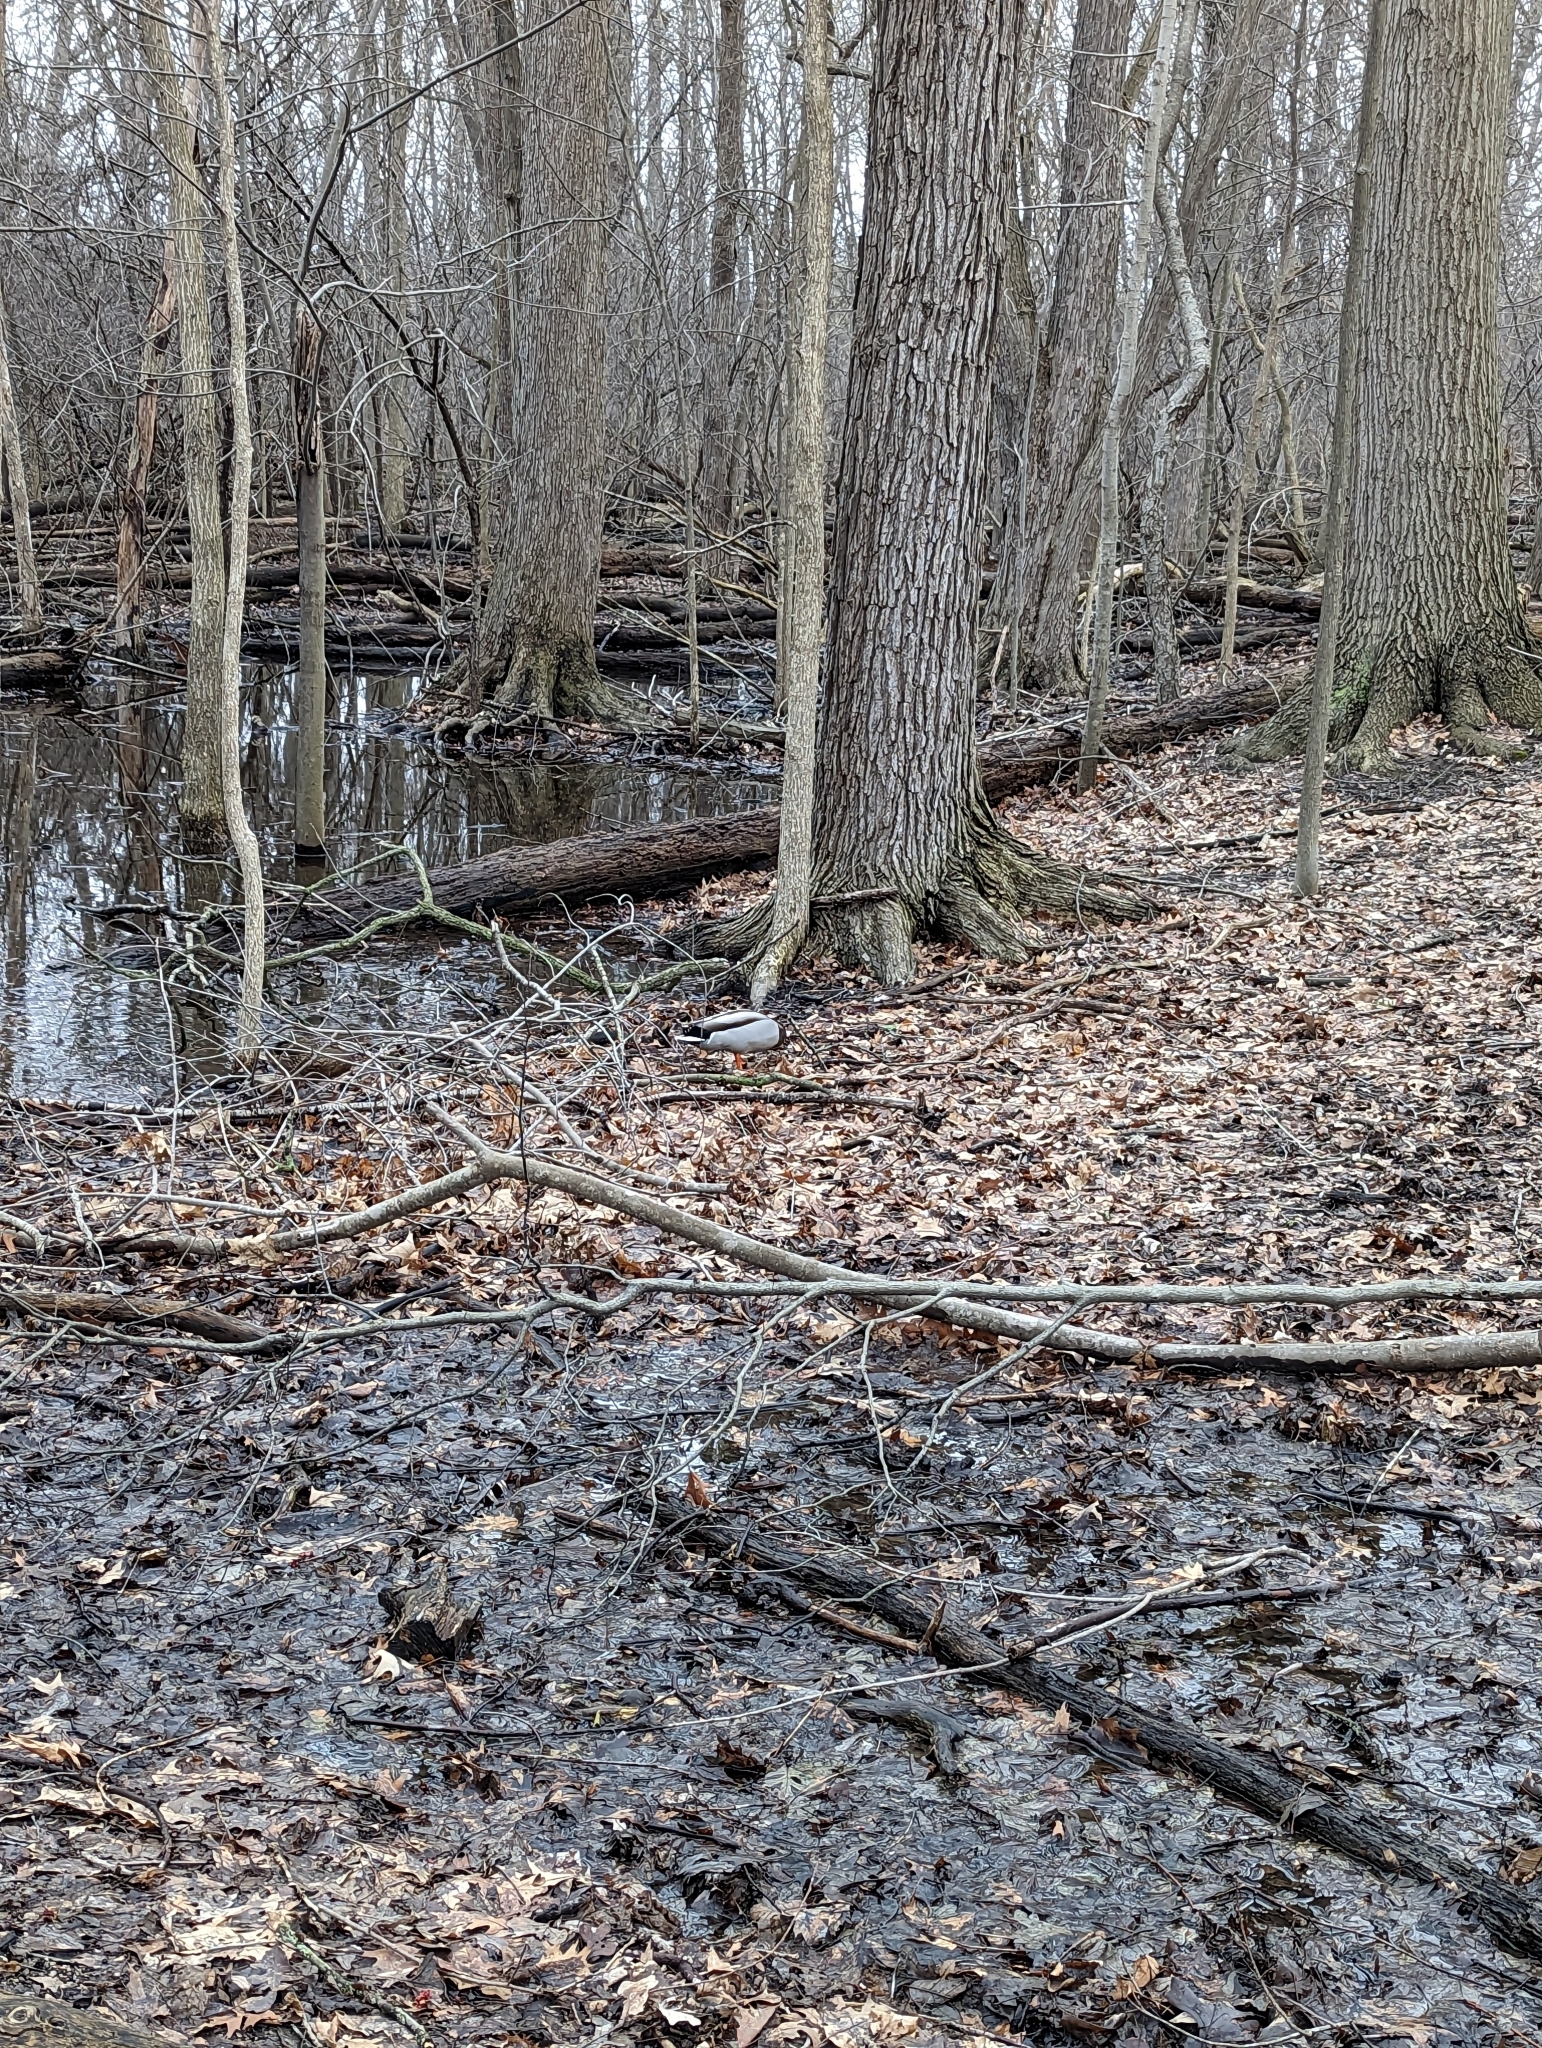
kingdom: Animalia
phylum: Chordata
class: Aves
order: Anseriformes
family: Anatidae
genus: Anas
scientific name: Anas platyrhynchos
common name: Mallard
